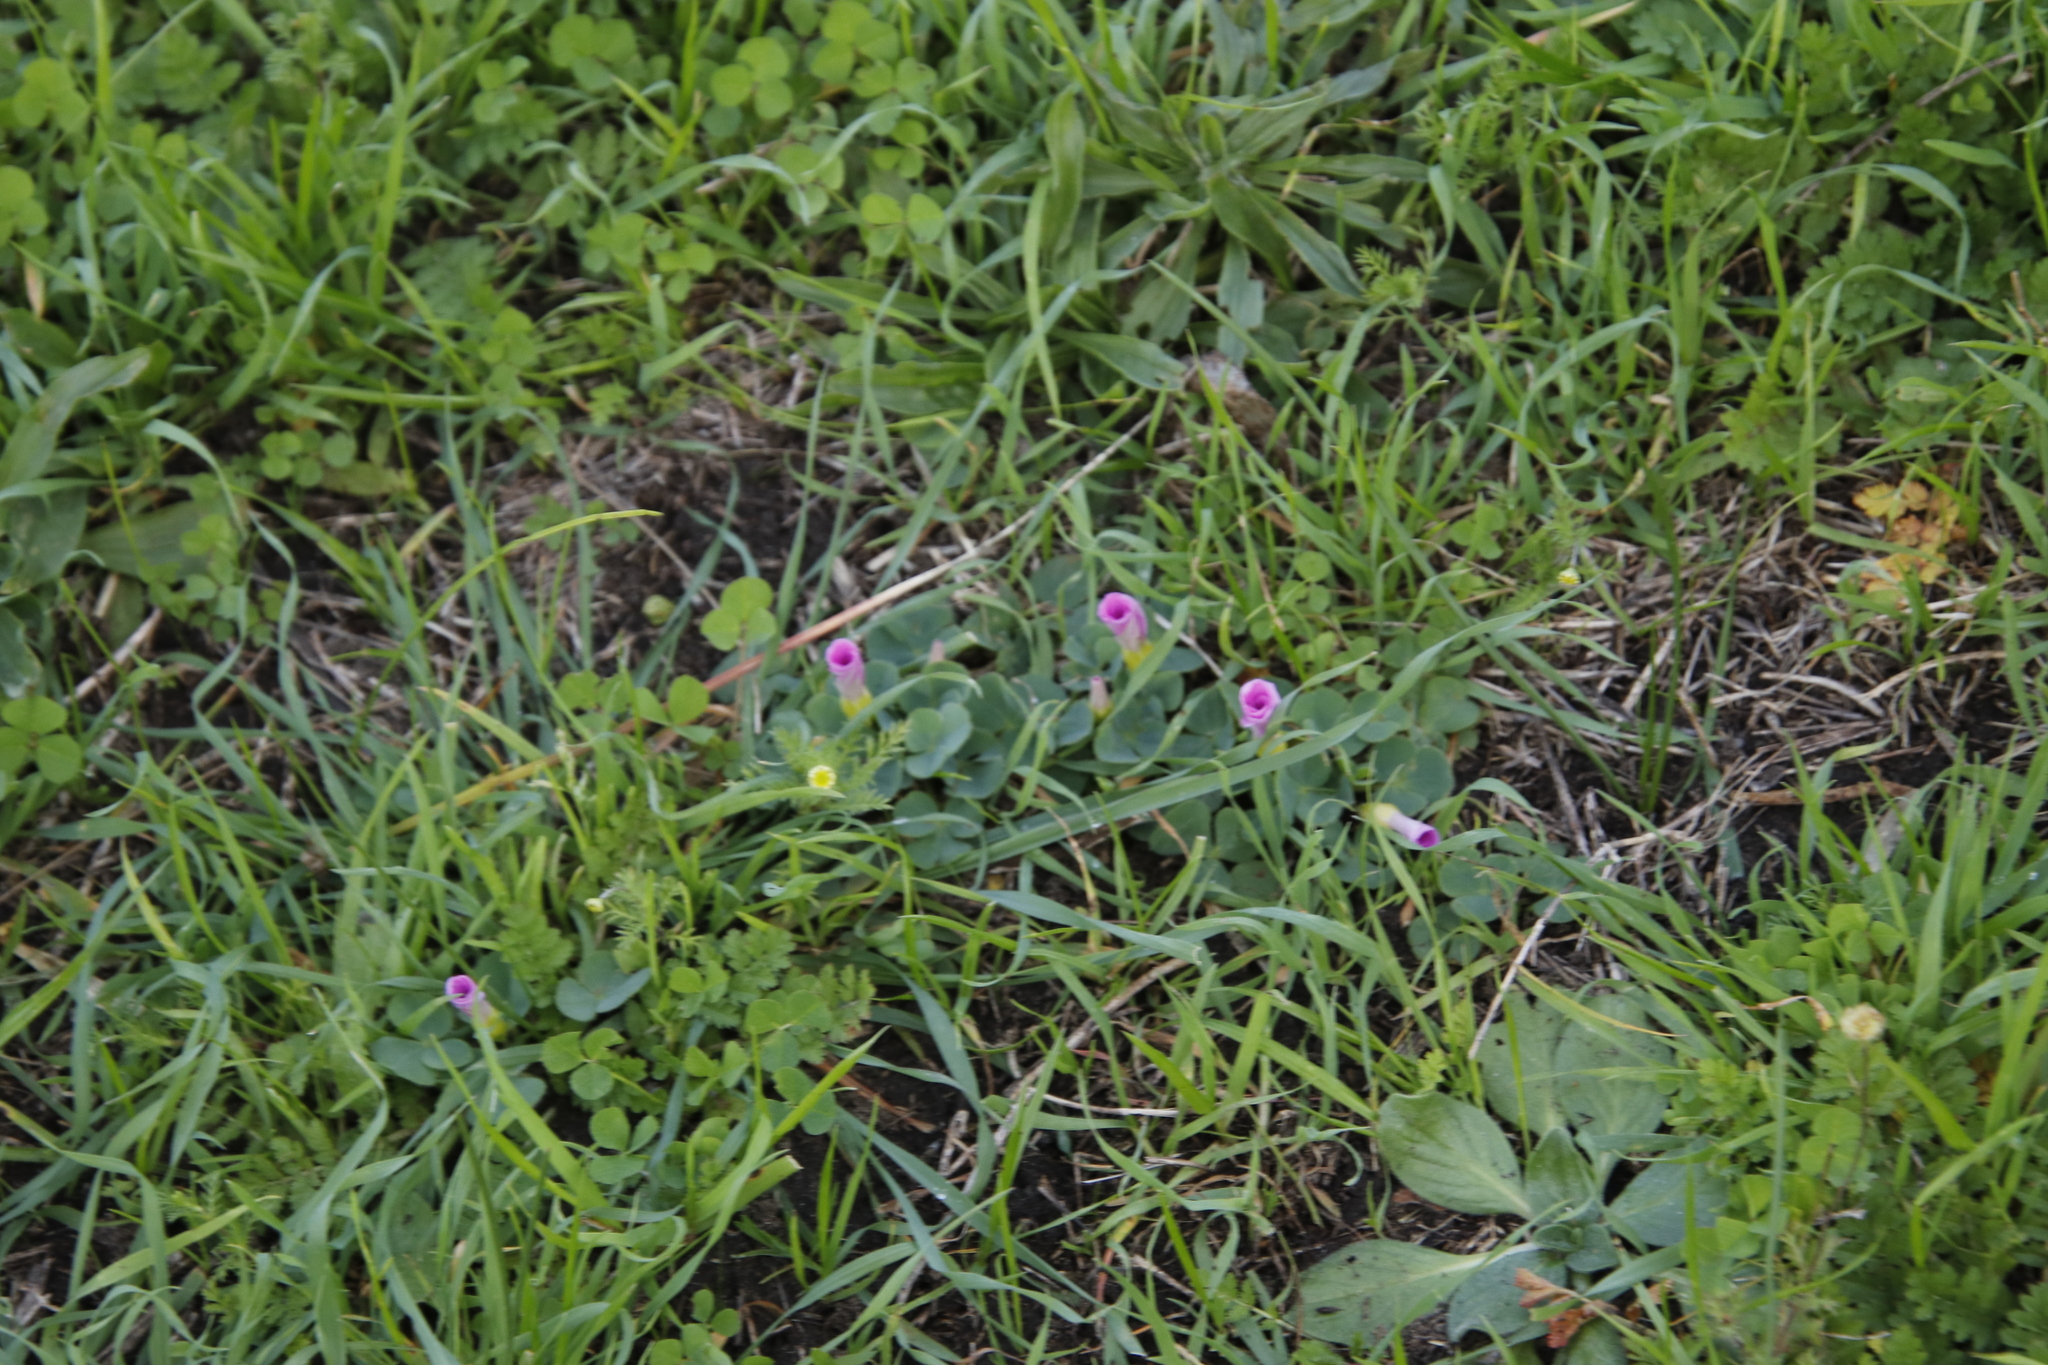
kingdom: Plantae
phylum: Tracheophyta
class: Magnoliopsida
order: Oxalidales
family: Oxalidaceae
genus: Oxalis
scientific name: Oxalis purpurea
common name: Purple woodsorrel
